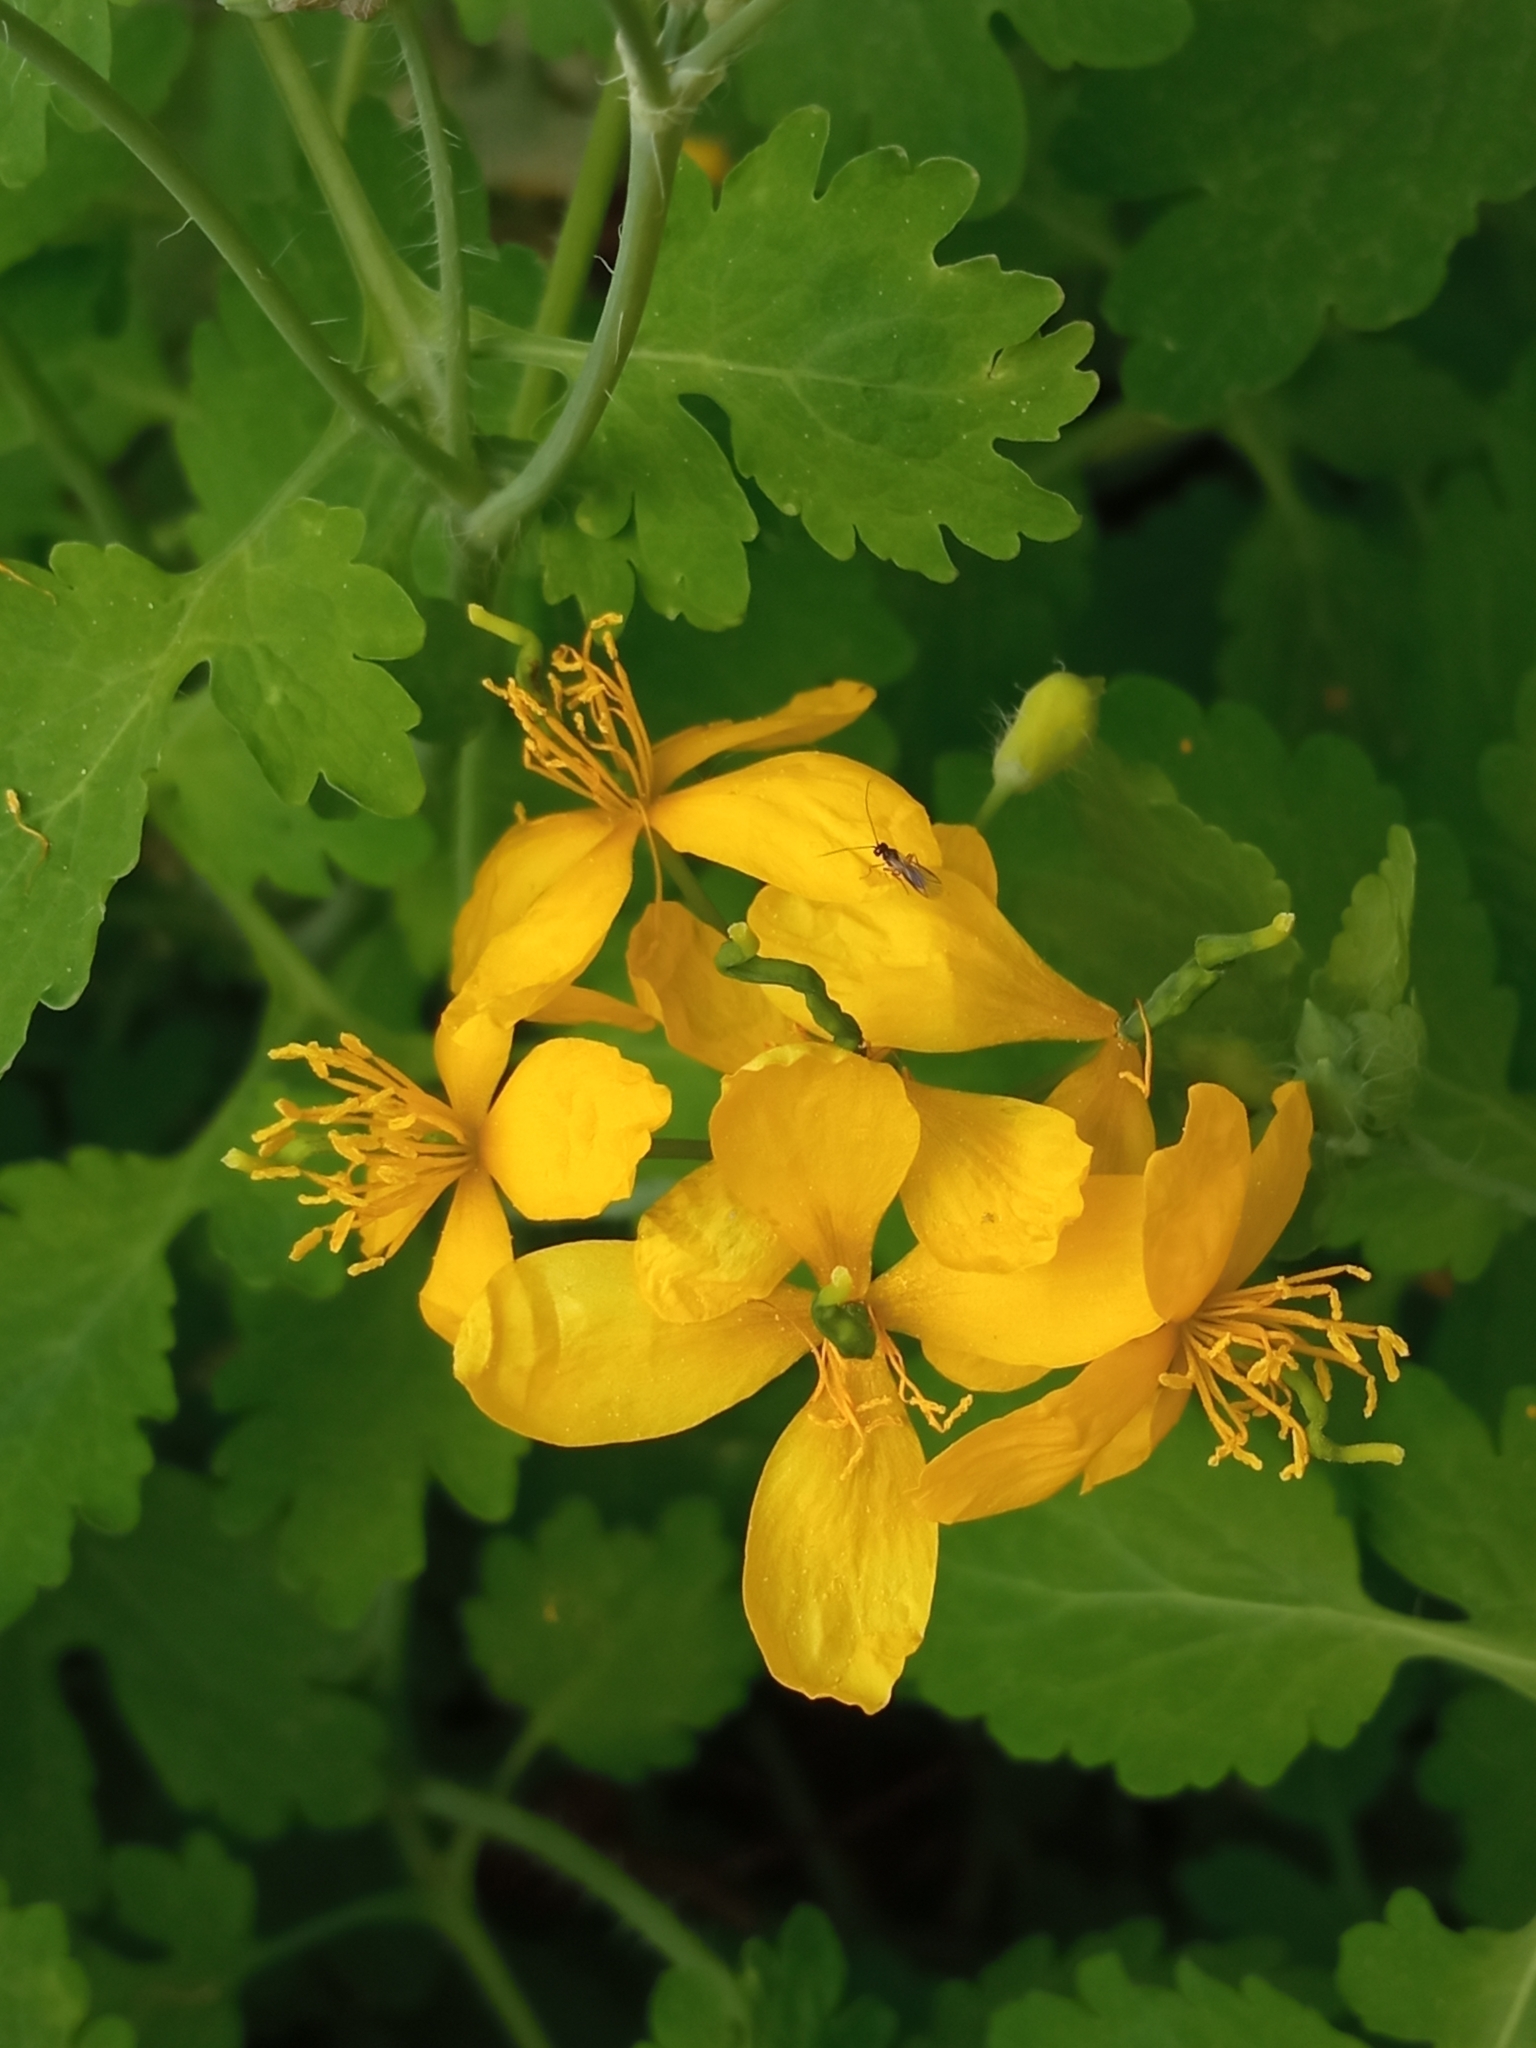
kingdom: Plantae
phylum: Tracheophyta
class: Magnoliopsida
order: Ranunculales
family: Papaveraceae
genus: Chelidonium
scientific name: Chelidonium majus
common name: Greater celandine
